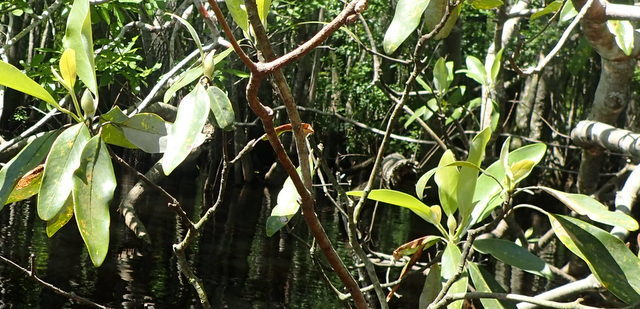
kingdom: Plantae
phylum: Tracheophyta
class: Magnoliopsida
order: Magnoliales
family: Magnoliaceae
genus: Magnolia
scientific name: Magnolia virginiana
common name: Swamp bay
